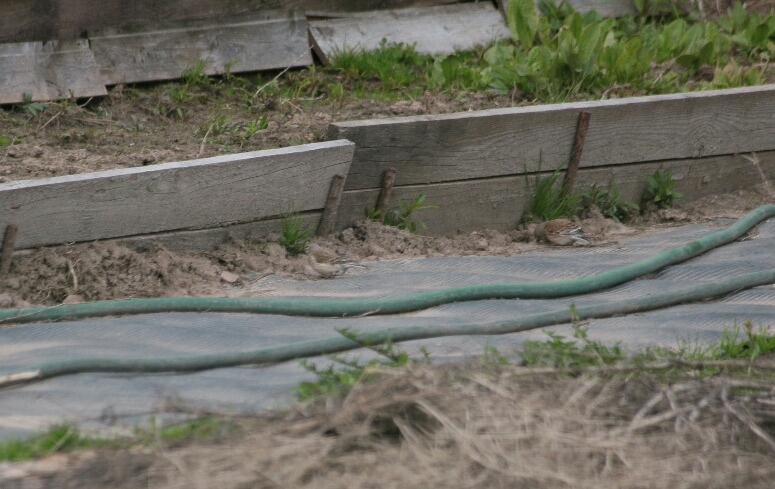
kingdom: Animalia
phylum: Chordata
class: Aves
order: Passeriformes
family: Fringillidae
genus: Linaria
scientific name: Linaria cannabina
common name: Common linnet
